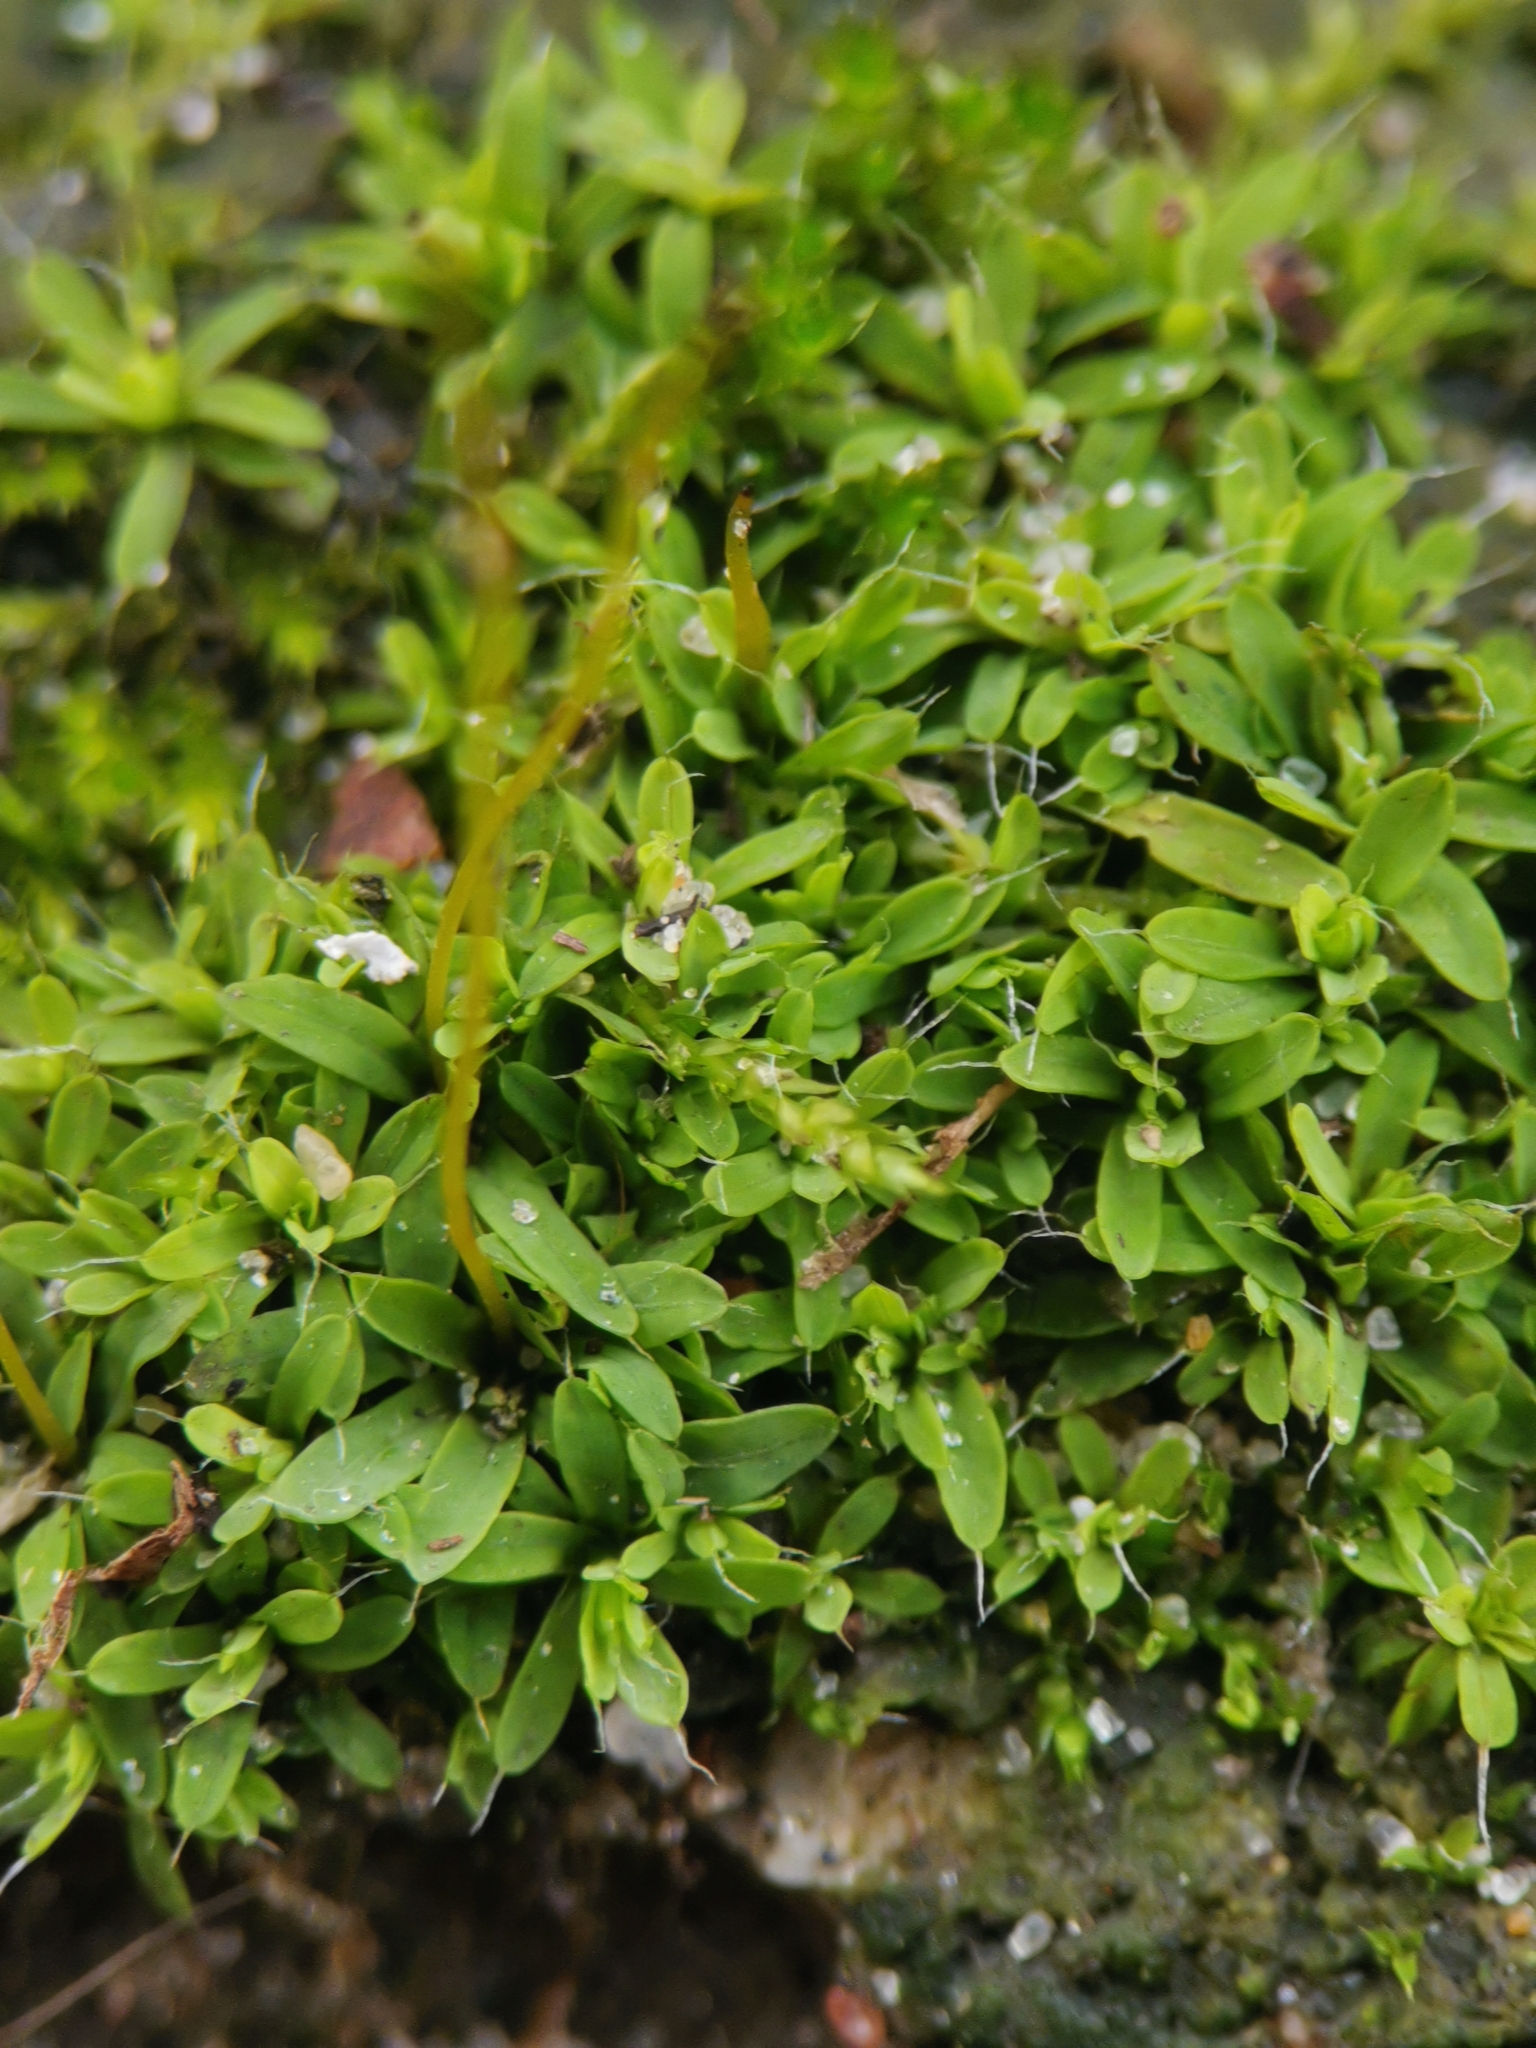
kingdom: Plantae
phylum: Bryophyta
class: Bryopsida
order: Pottiales
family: Pottiaceae
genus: Tortula
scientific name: Tortula muralis
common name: Wall screw-moss
